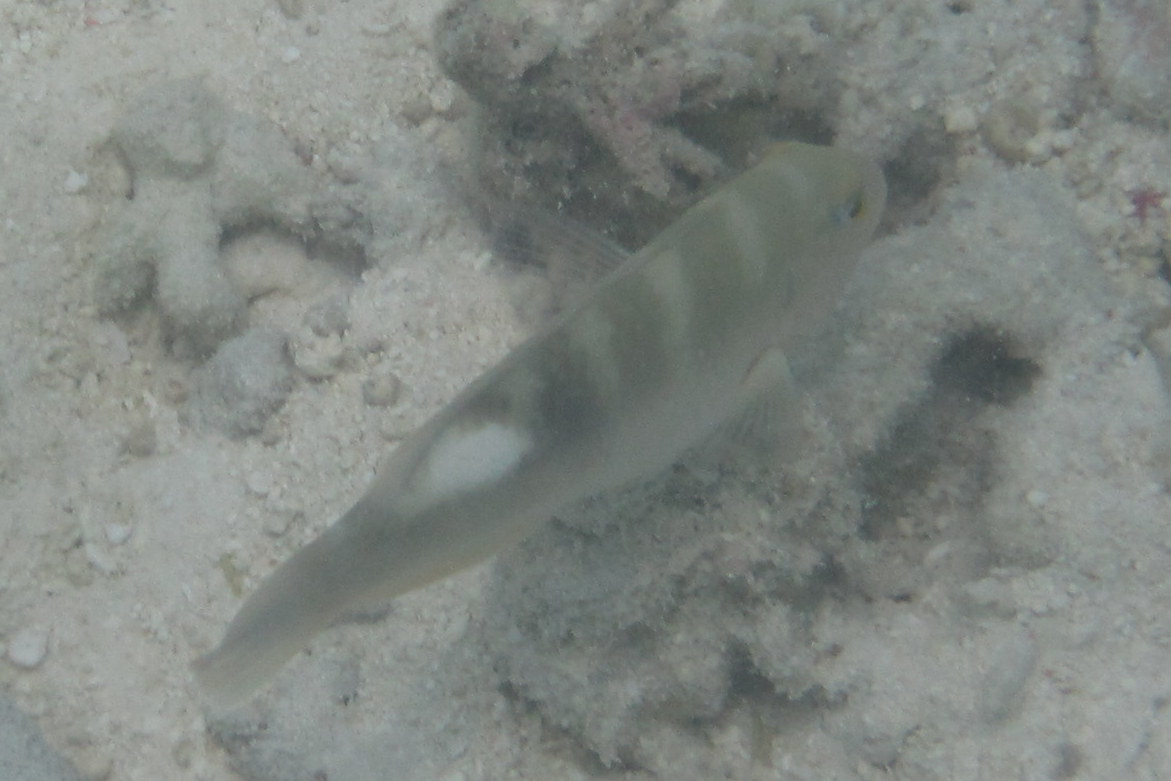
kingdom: Animalia
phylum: Chordata
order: Perciformes
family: Labridae
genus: Choerodon
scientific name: Choerodon cyanodus
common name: Blue tuskfish
